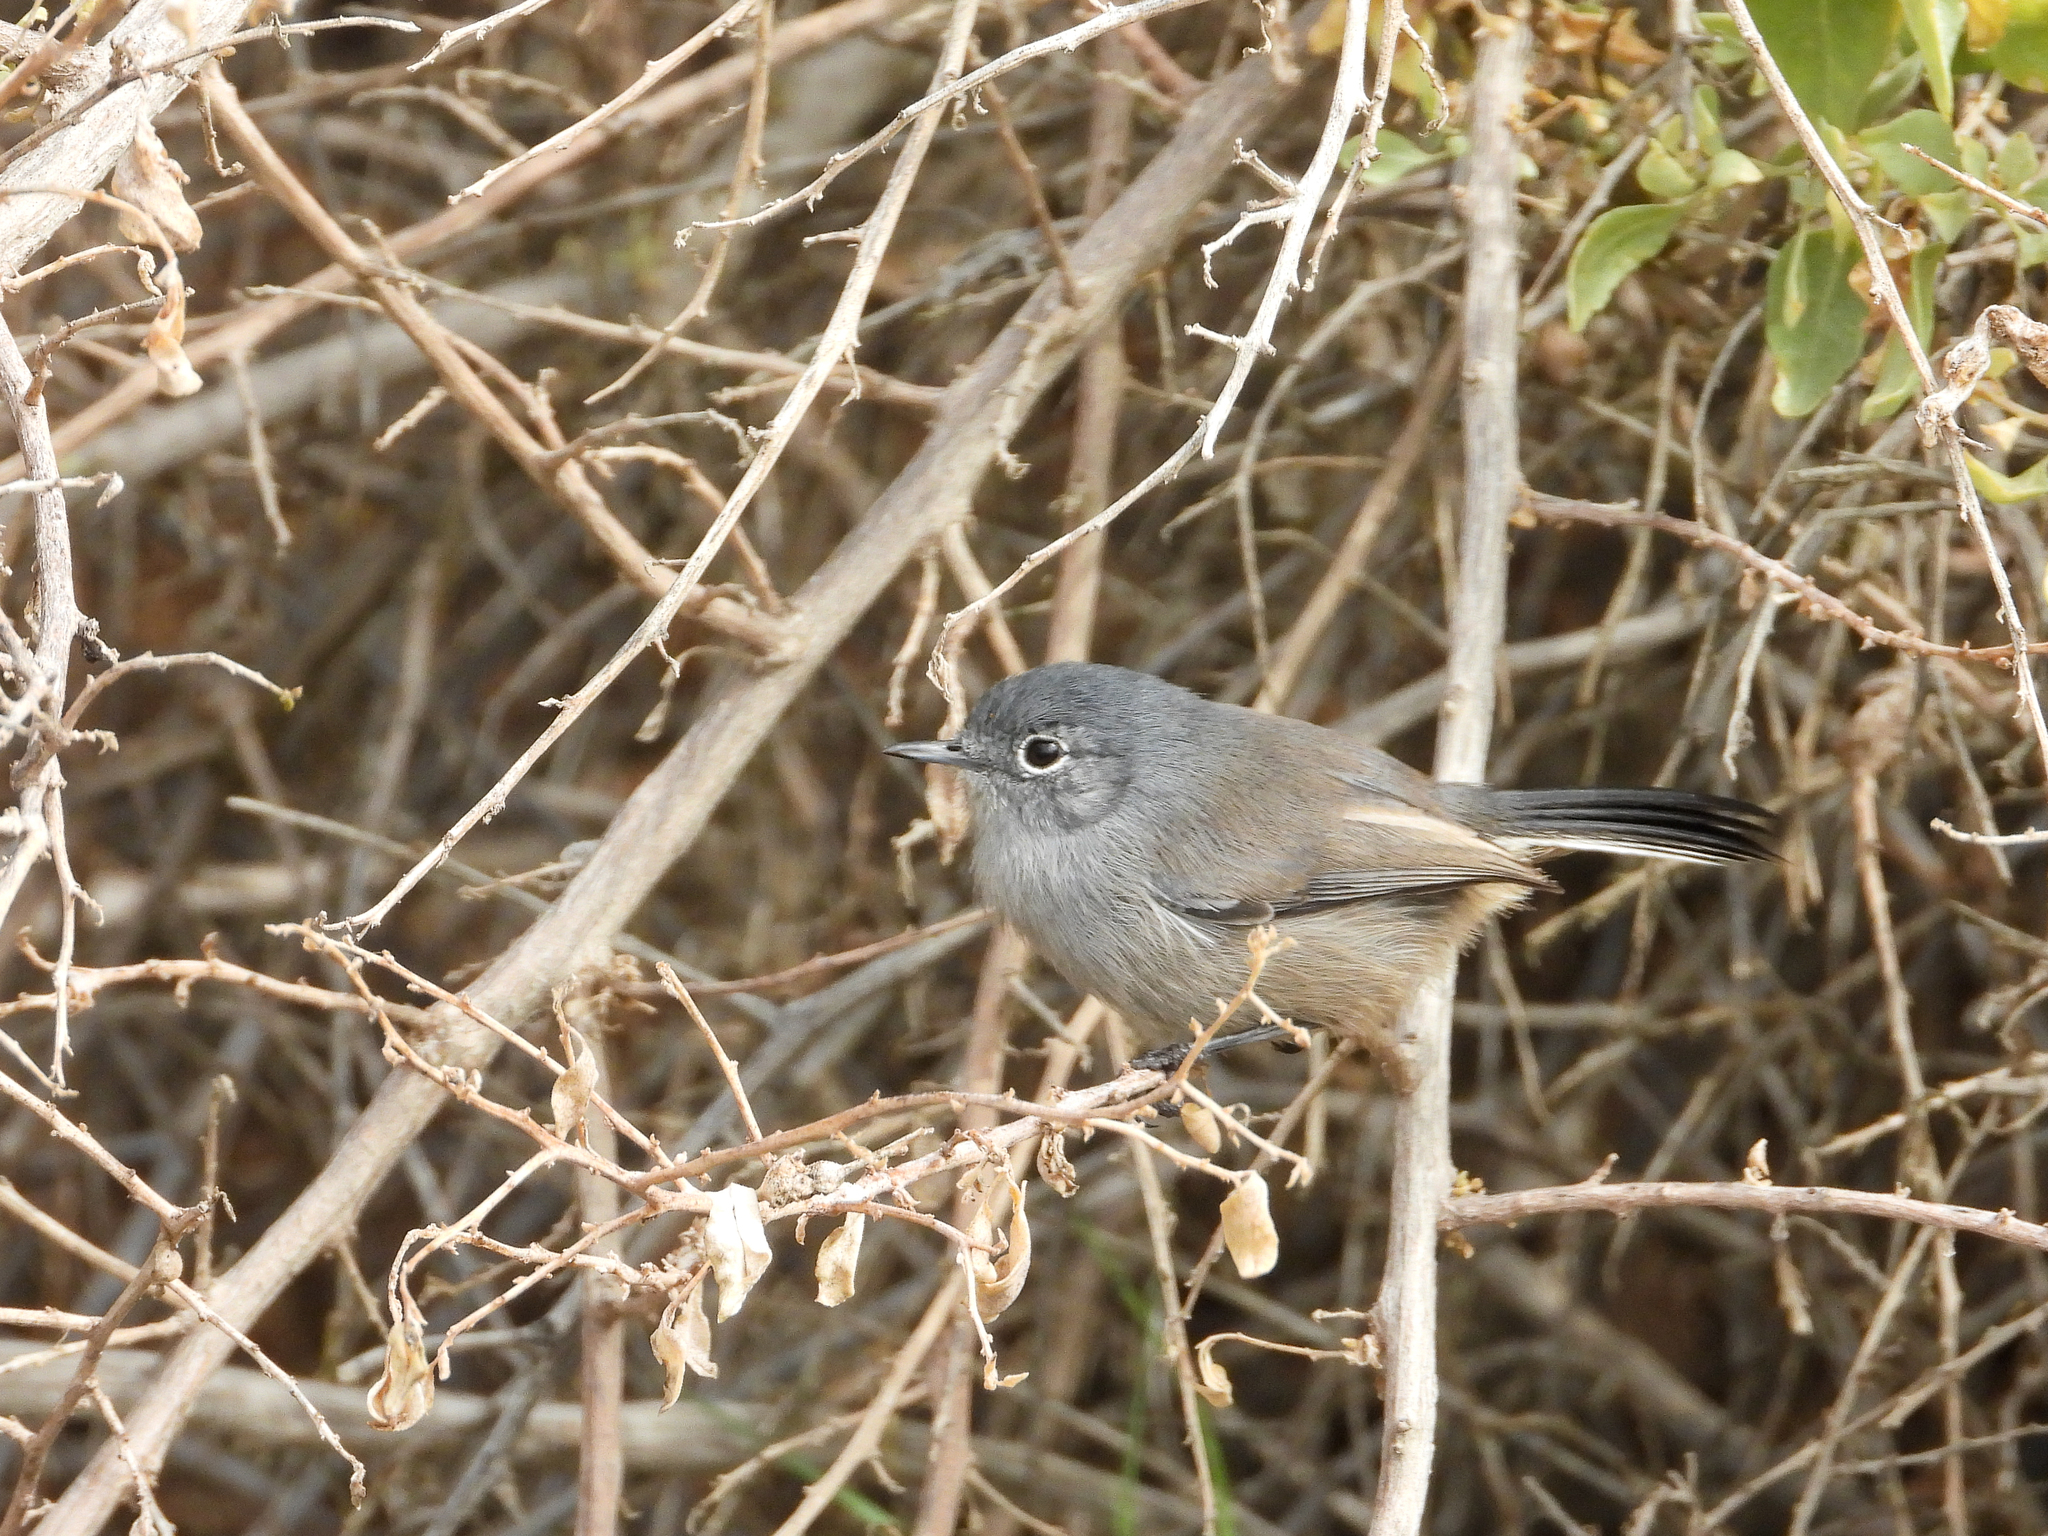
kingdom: Animalia
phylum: Chordata
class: Aves
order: Passeriformes
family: Polioptilidae
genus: Polioptila
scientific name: Polioptila californica
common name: California gnatcatcher
